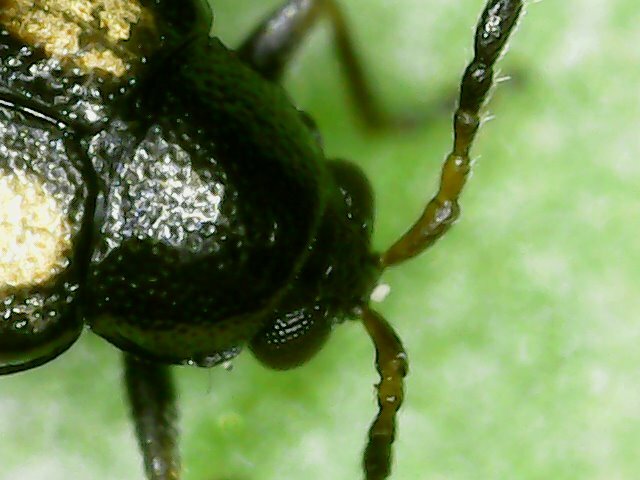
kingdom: Animalia
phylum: Arthropoda
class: Insecta
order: Coleoptera
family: Chrysomelidae
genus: Phyllotreta
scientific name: Phyllotreta striolata
